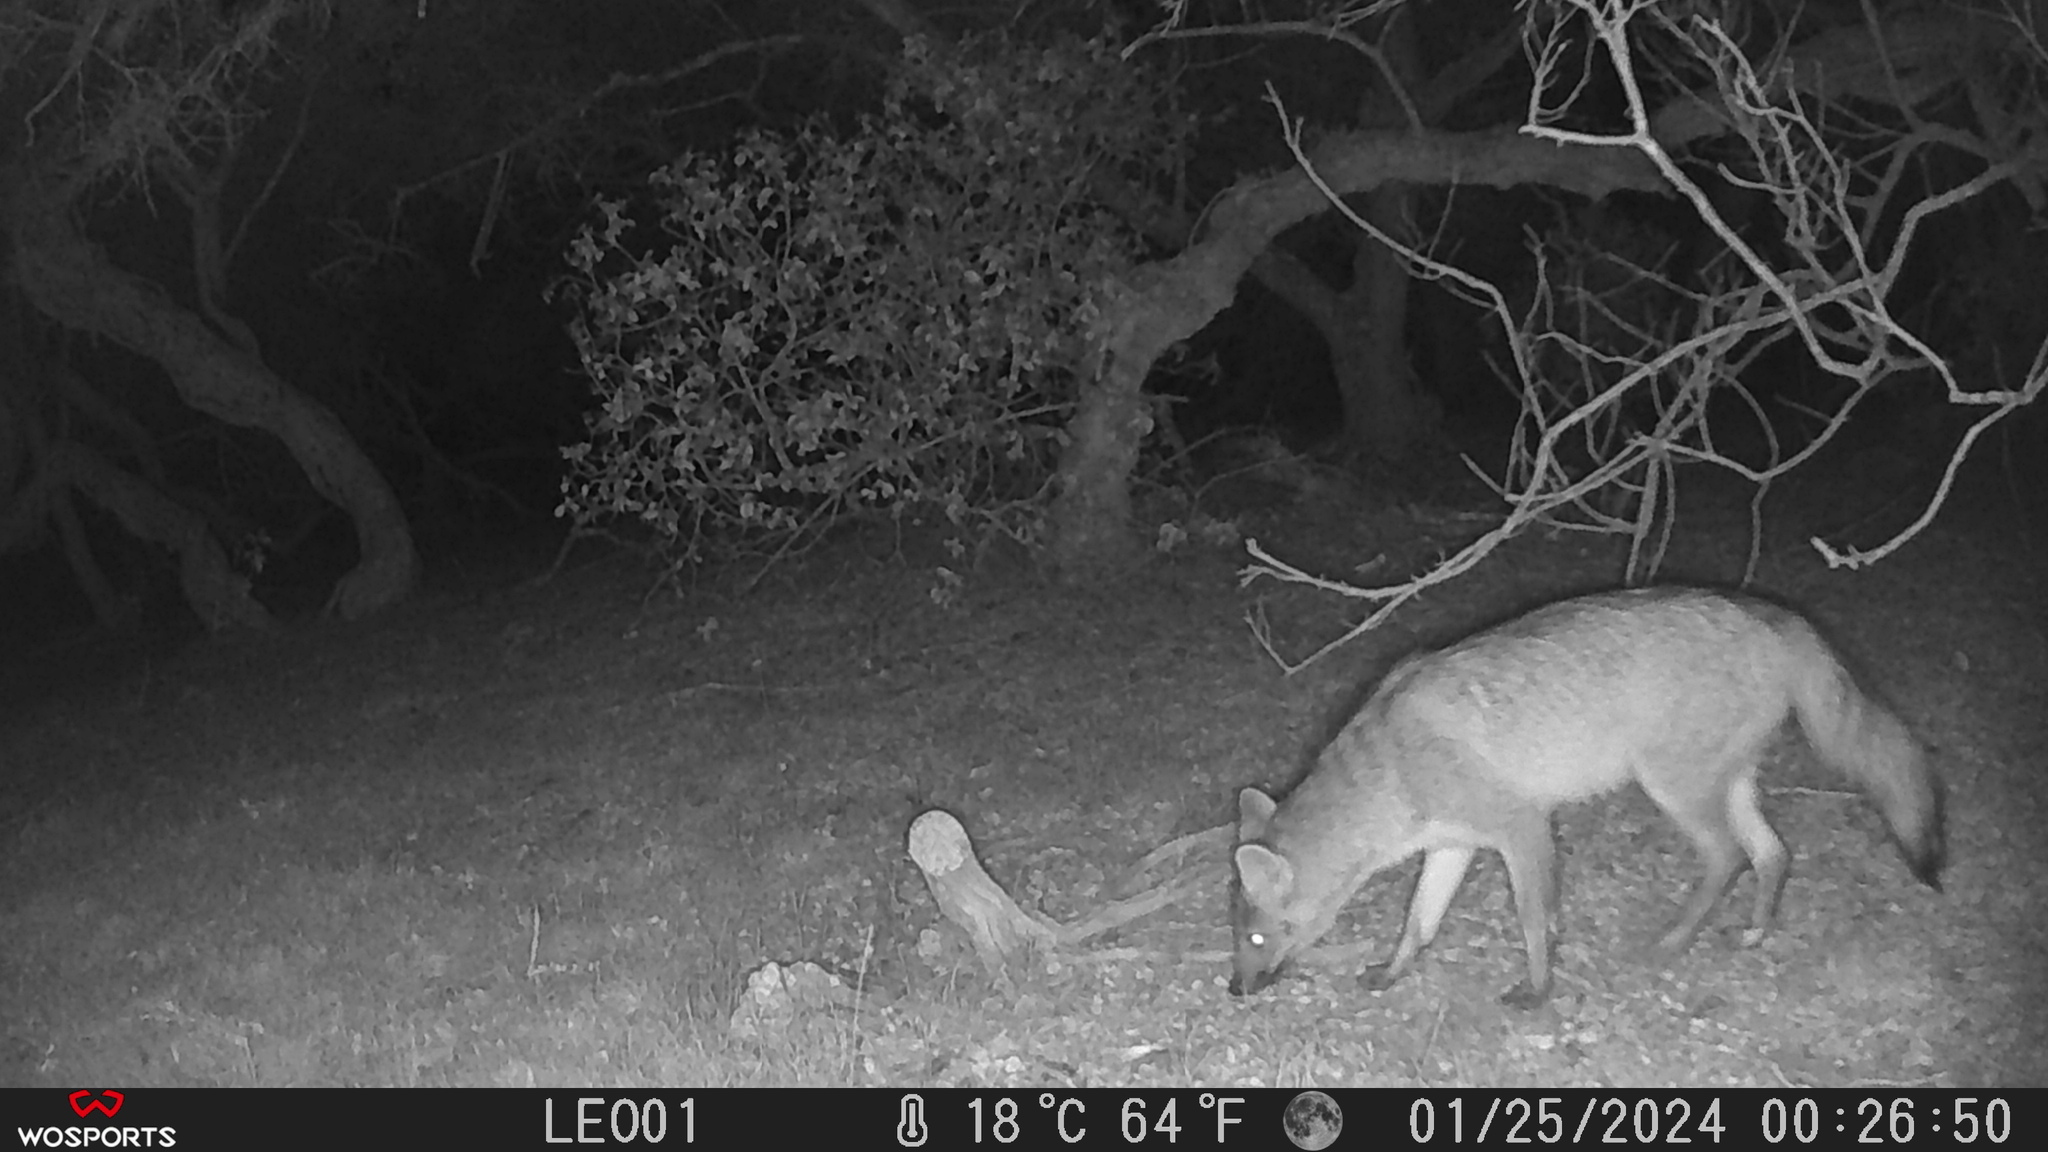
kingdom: Animalia
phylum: Chordata
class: Mammalia
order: Carnivora
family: Canidae
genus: Cerdocyon
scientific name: Cerdocyon thous
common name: Crab-eating fox
